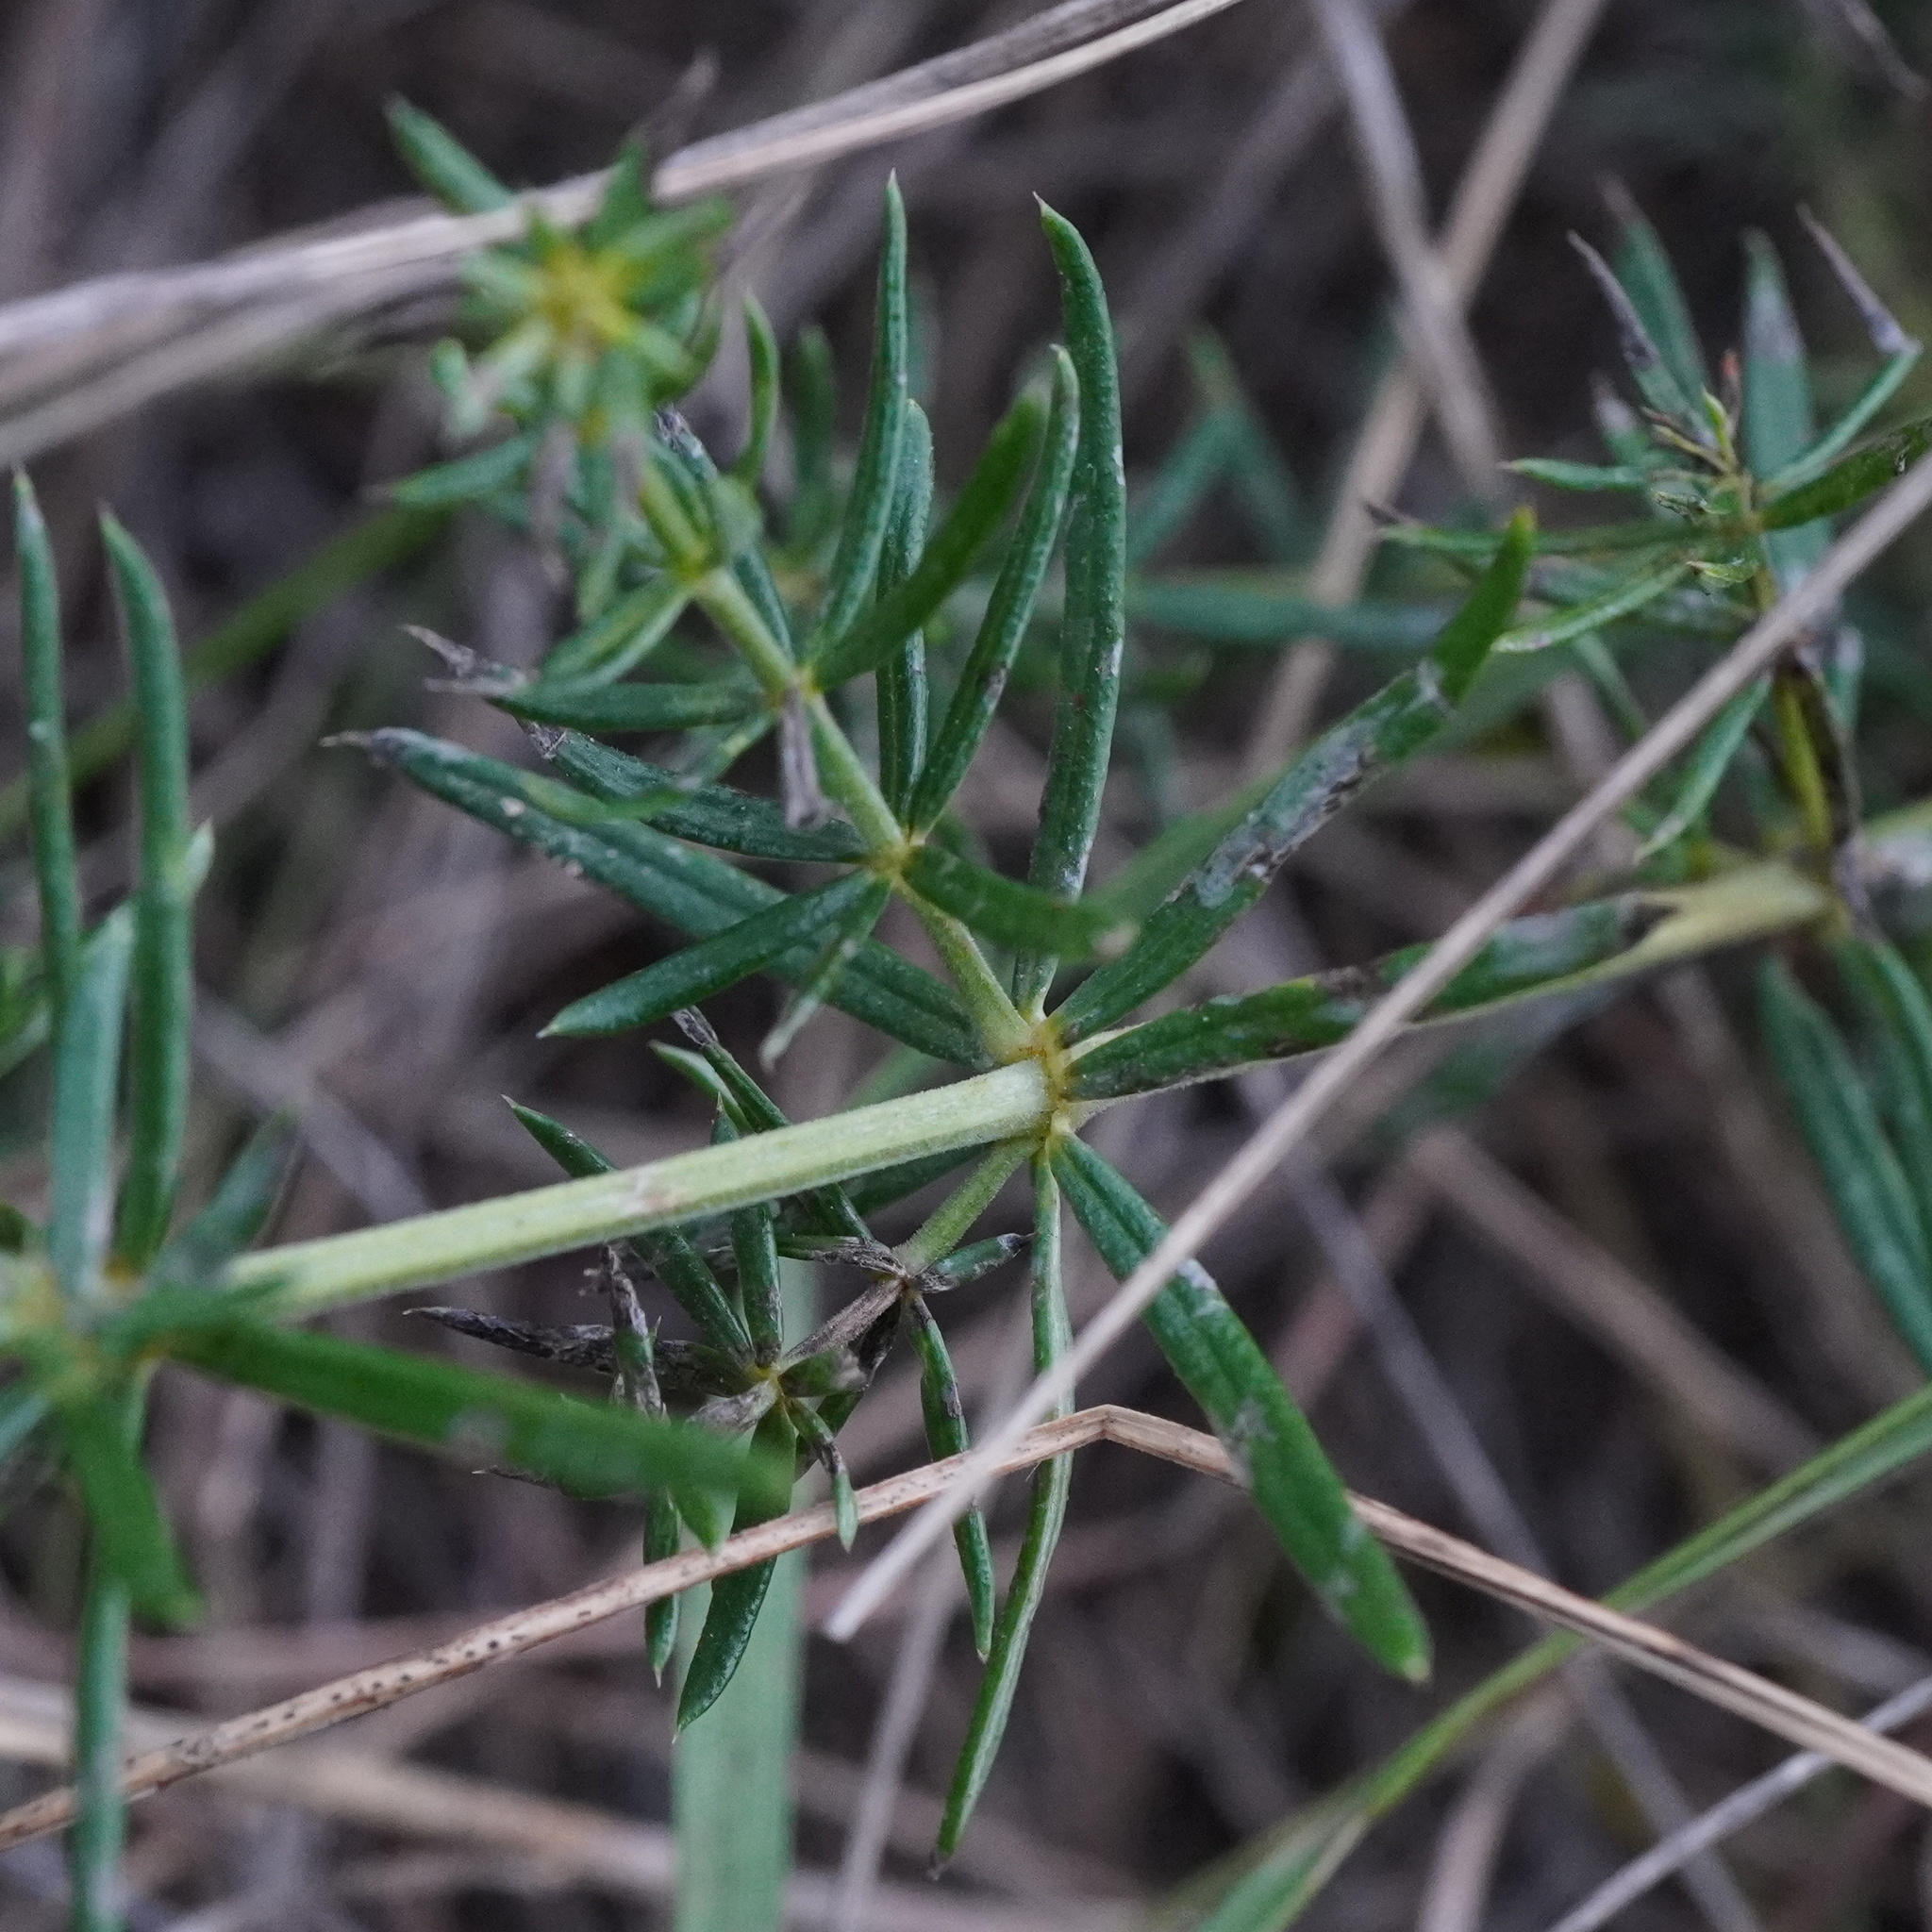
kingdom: Plantae
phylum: Tracheophyta
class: Magnoliopsida
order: Gentianales
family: Rubiaceae
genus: Galium
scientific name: Galium verum
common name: Lady's bedstraw
